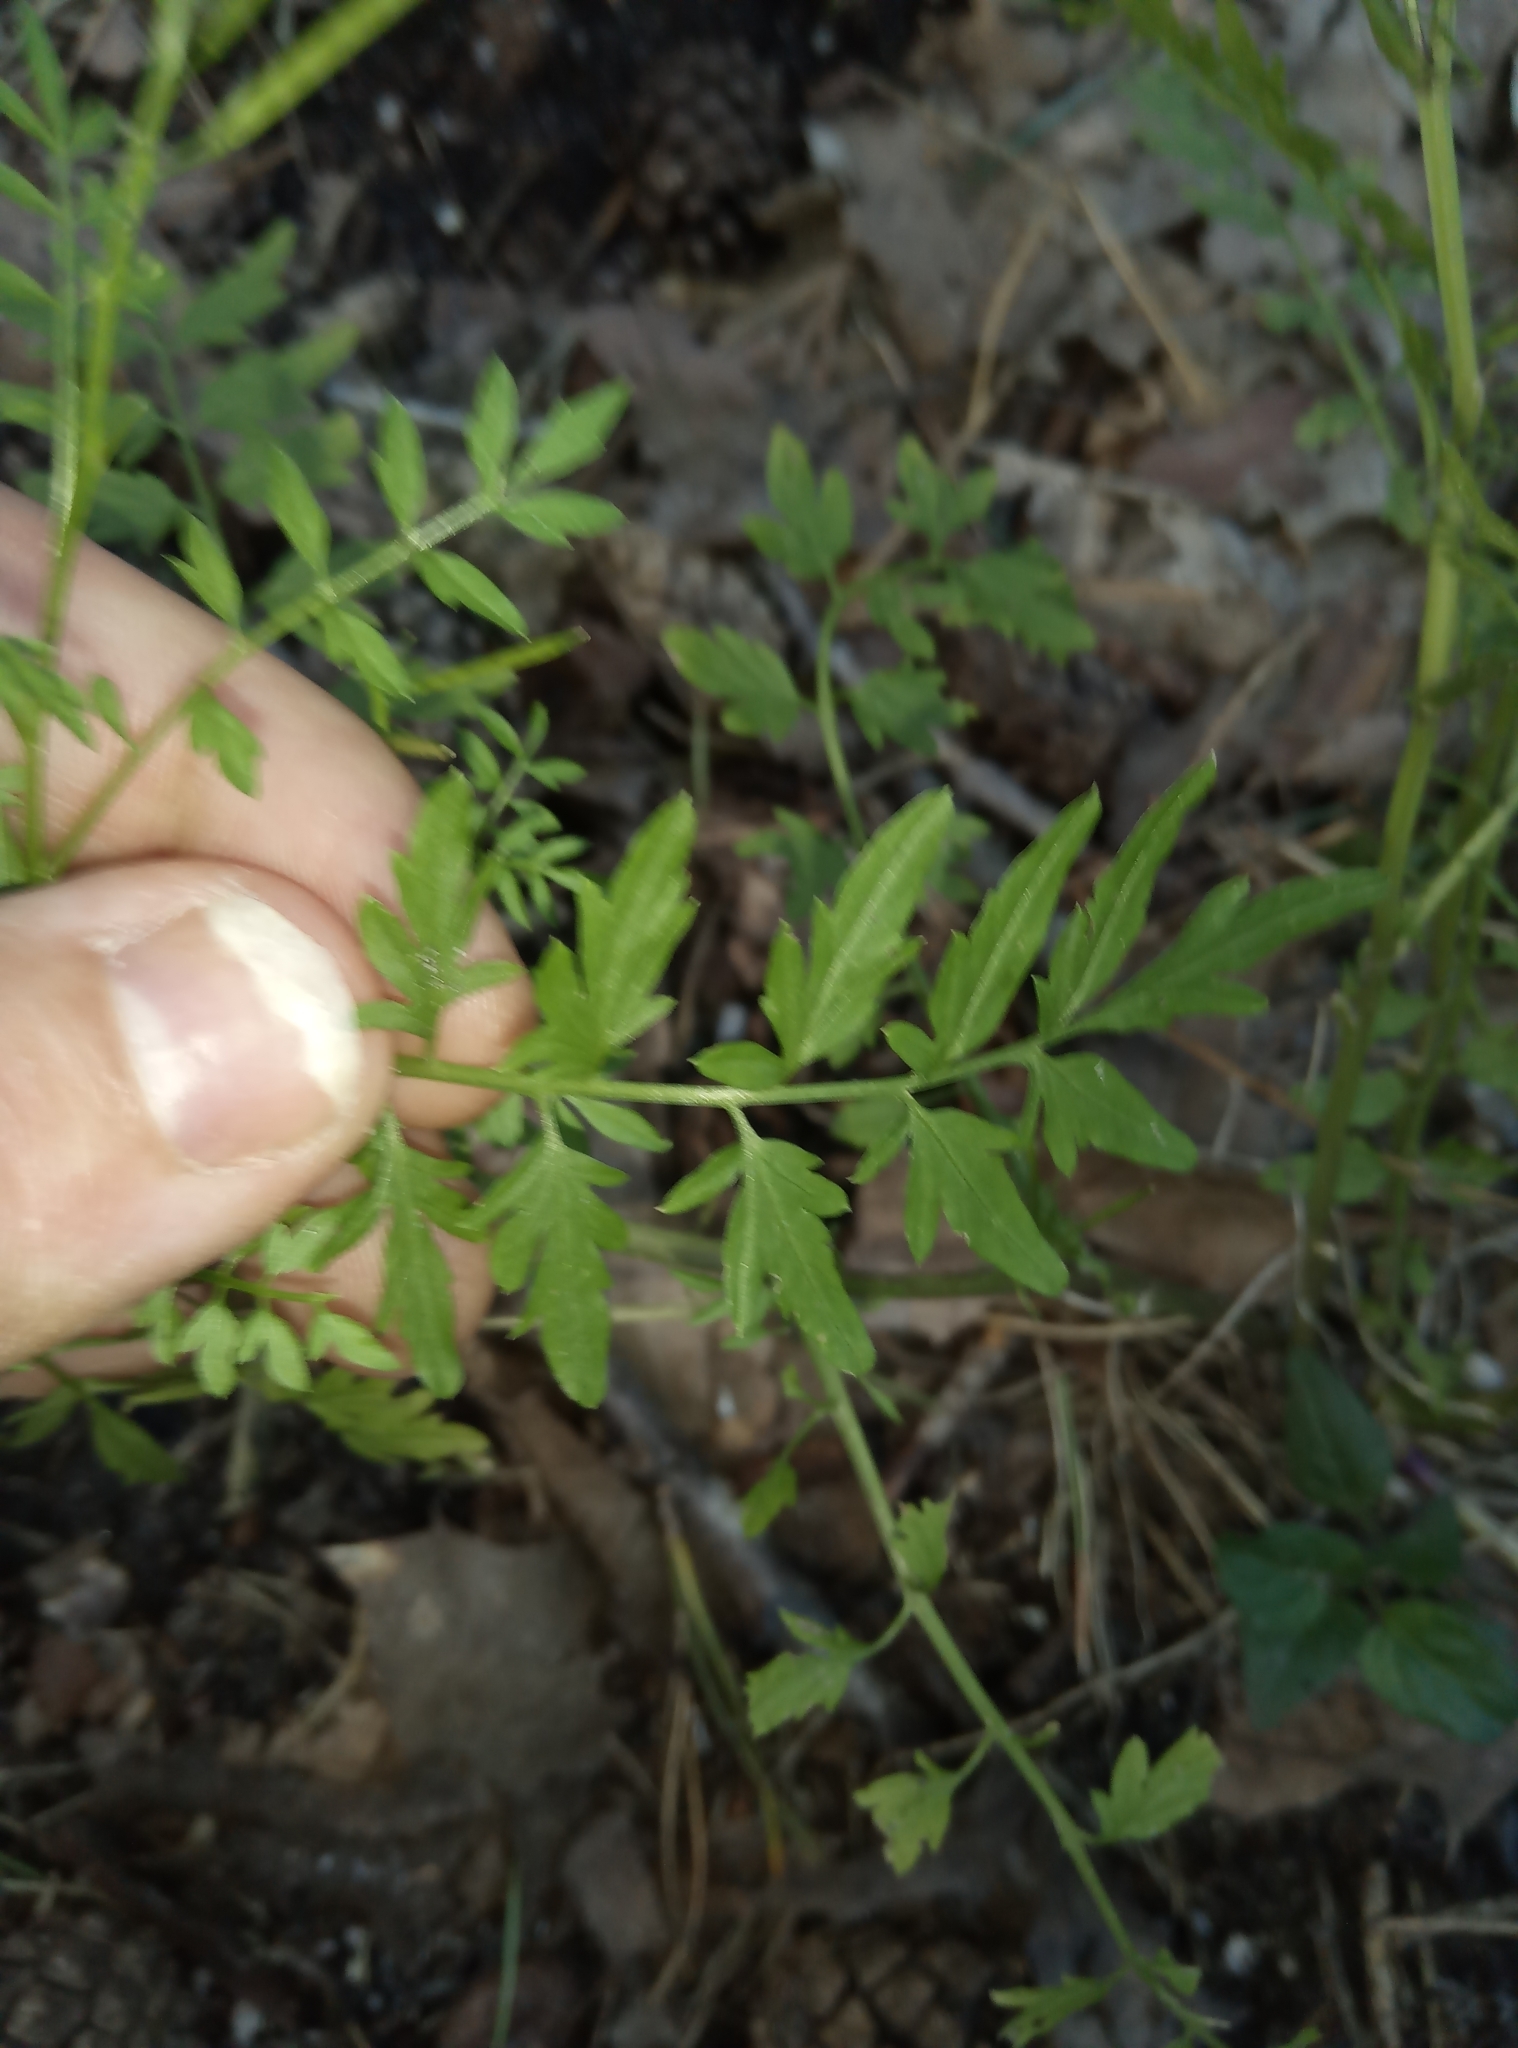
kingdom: Plantae
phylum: Tracheophyta
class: Magnoliopsida
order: Brassicales
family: Brassicaceae
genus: Cardamine
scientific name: Cardamine impatiens
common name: Narrow-leaved bitter-cress
